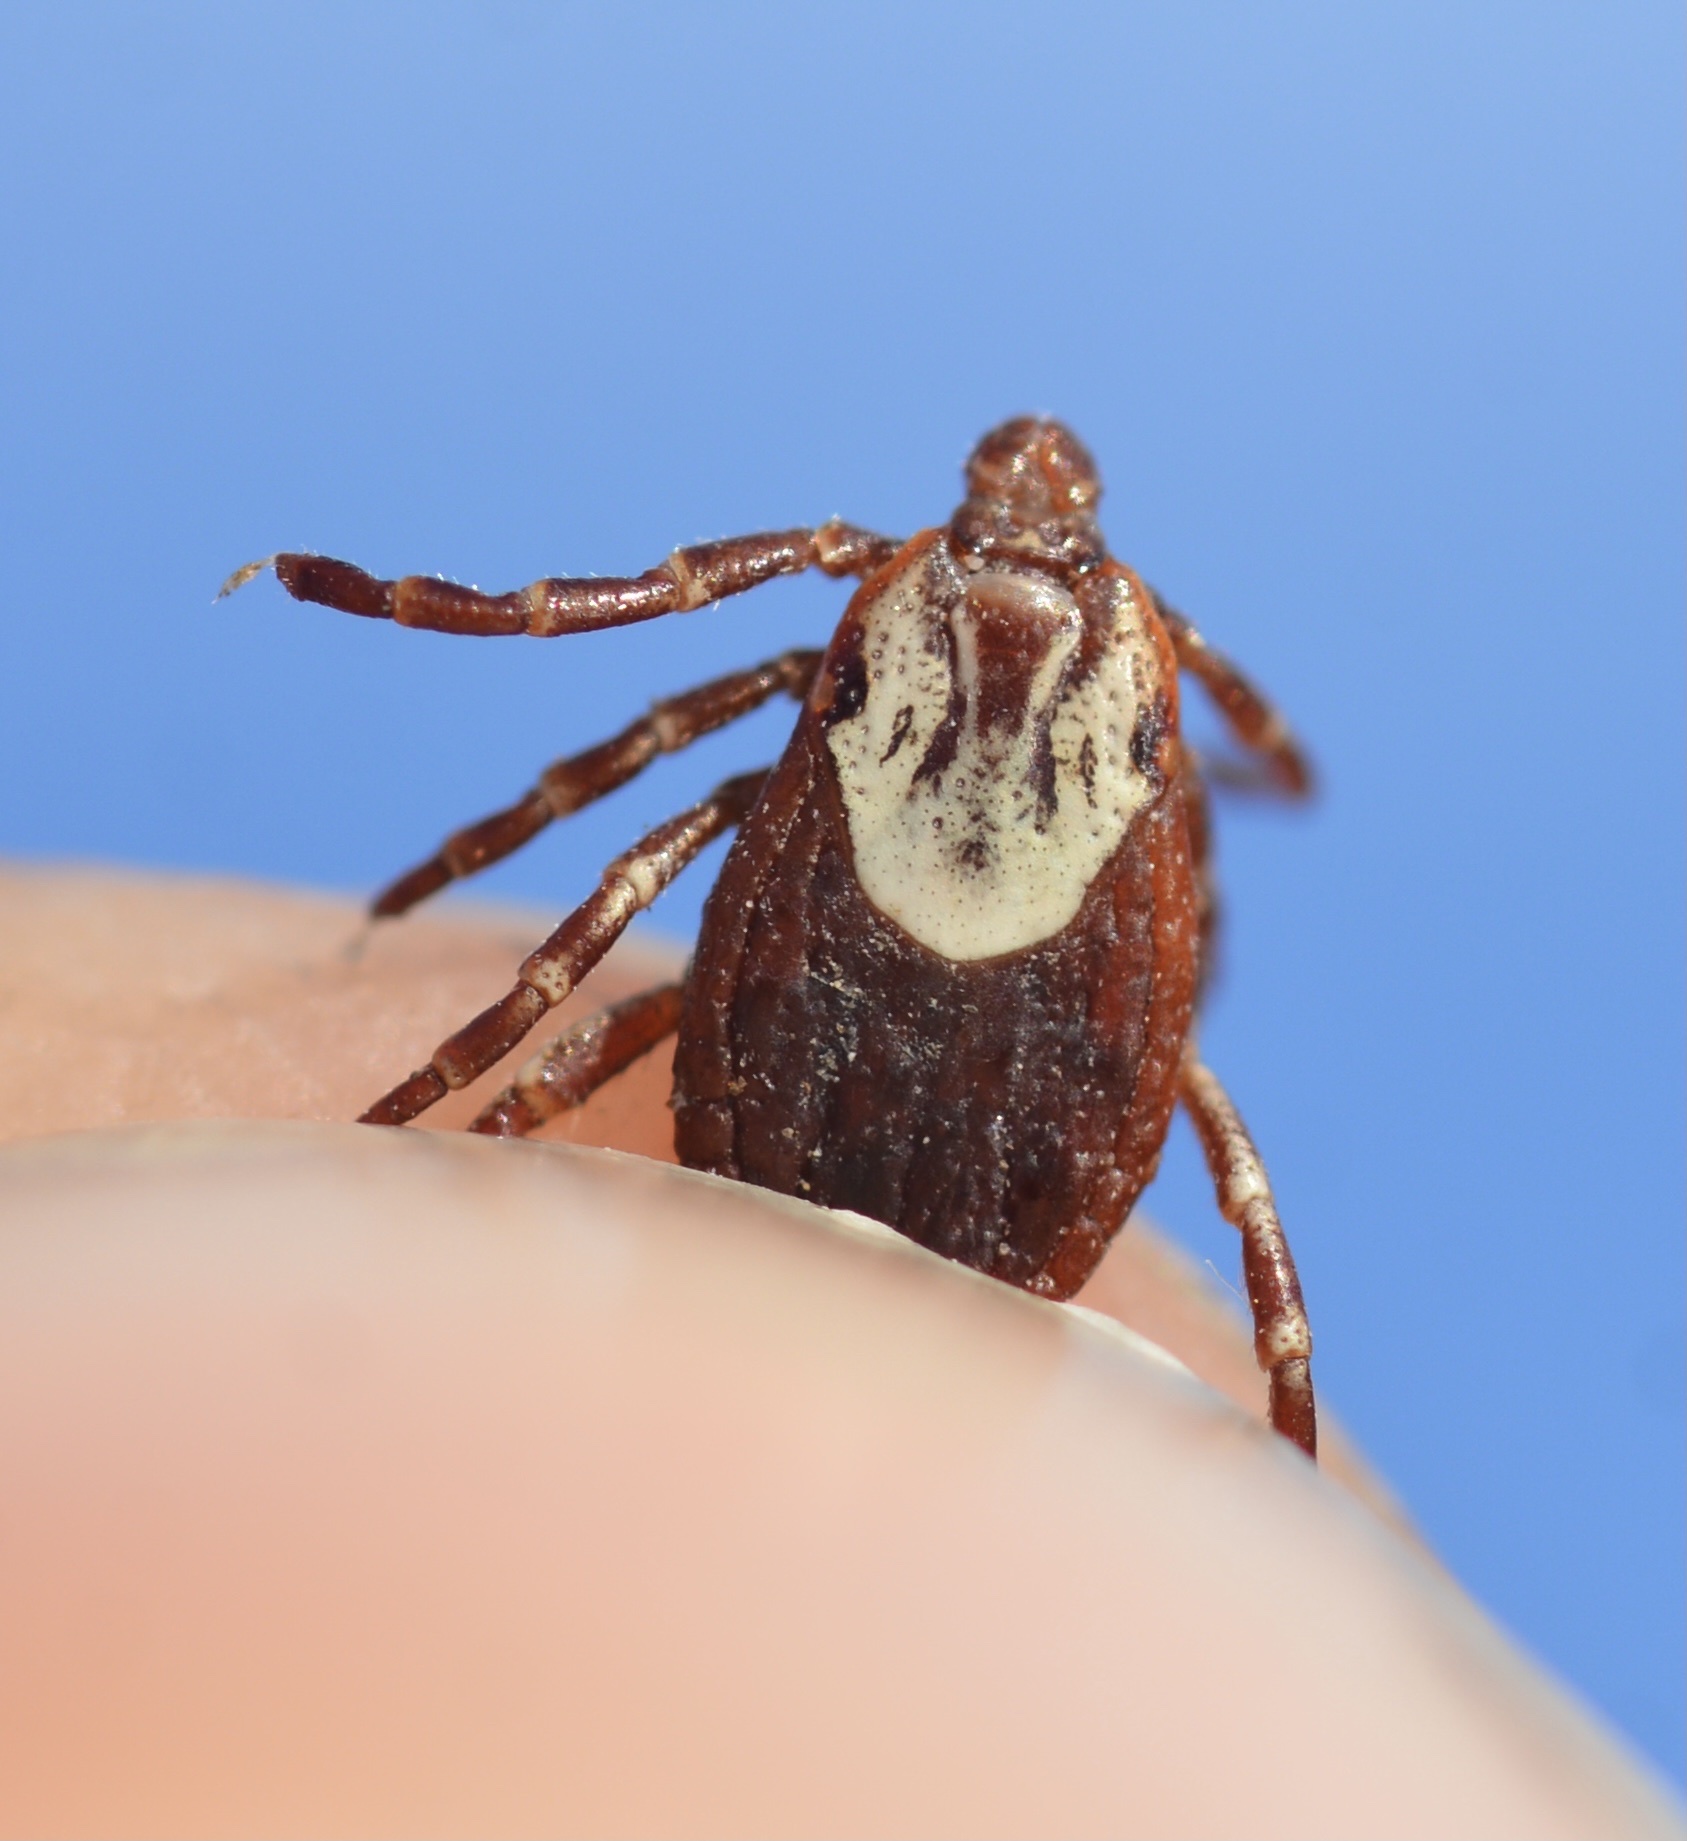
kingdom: Animalia
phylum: Arthropoda
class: Arachnida
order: Ixodida
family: Ixodidae
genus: Dermacentor
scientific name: Dermacentor variabilis
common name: American dog tick
